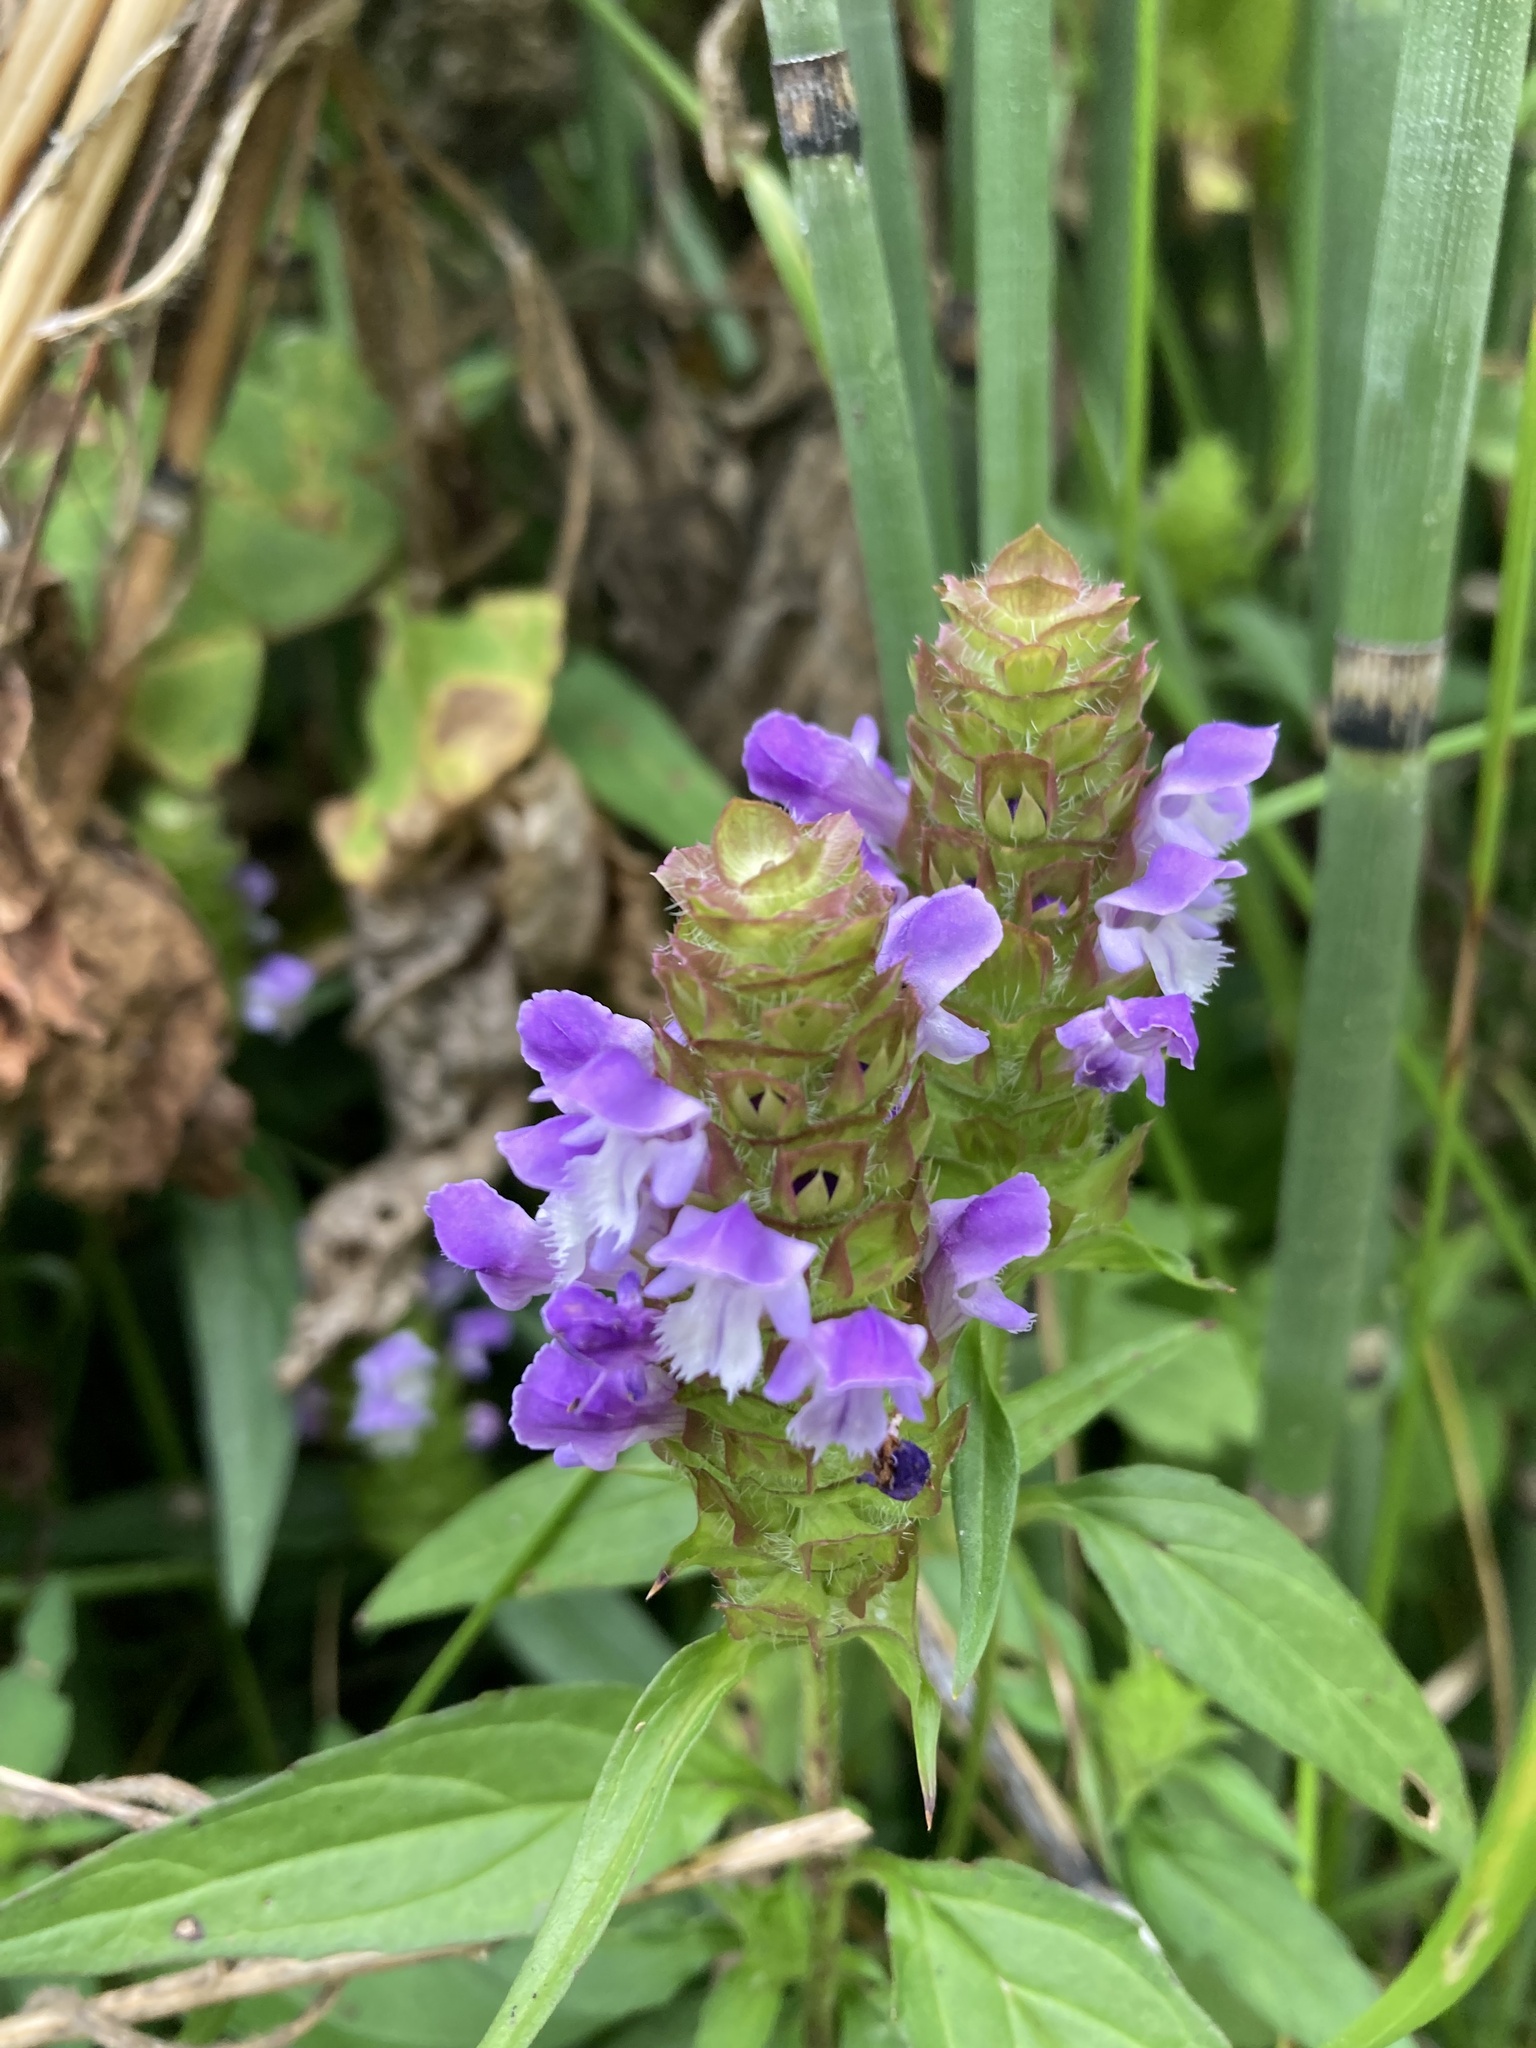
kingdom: Plantae
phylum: Tracheophyta
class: Magnoliopsida
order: Lamiales
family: Lamiaceae
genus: Prunella
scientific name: Prunella vulgaris
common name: Heal-all
